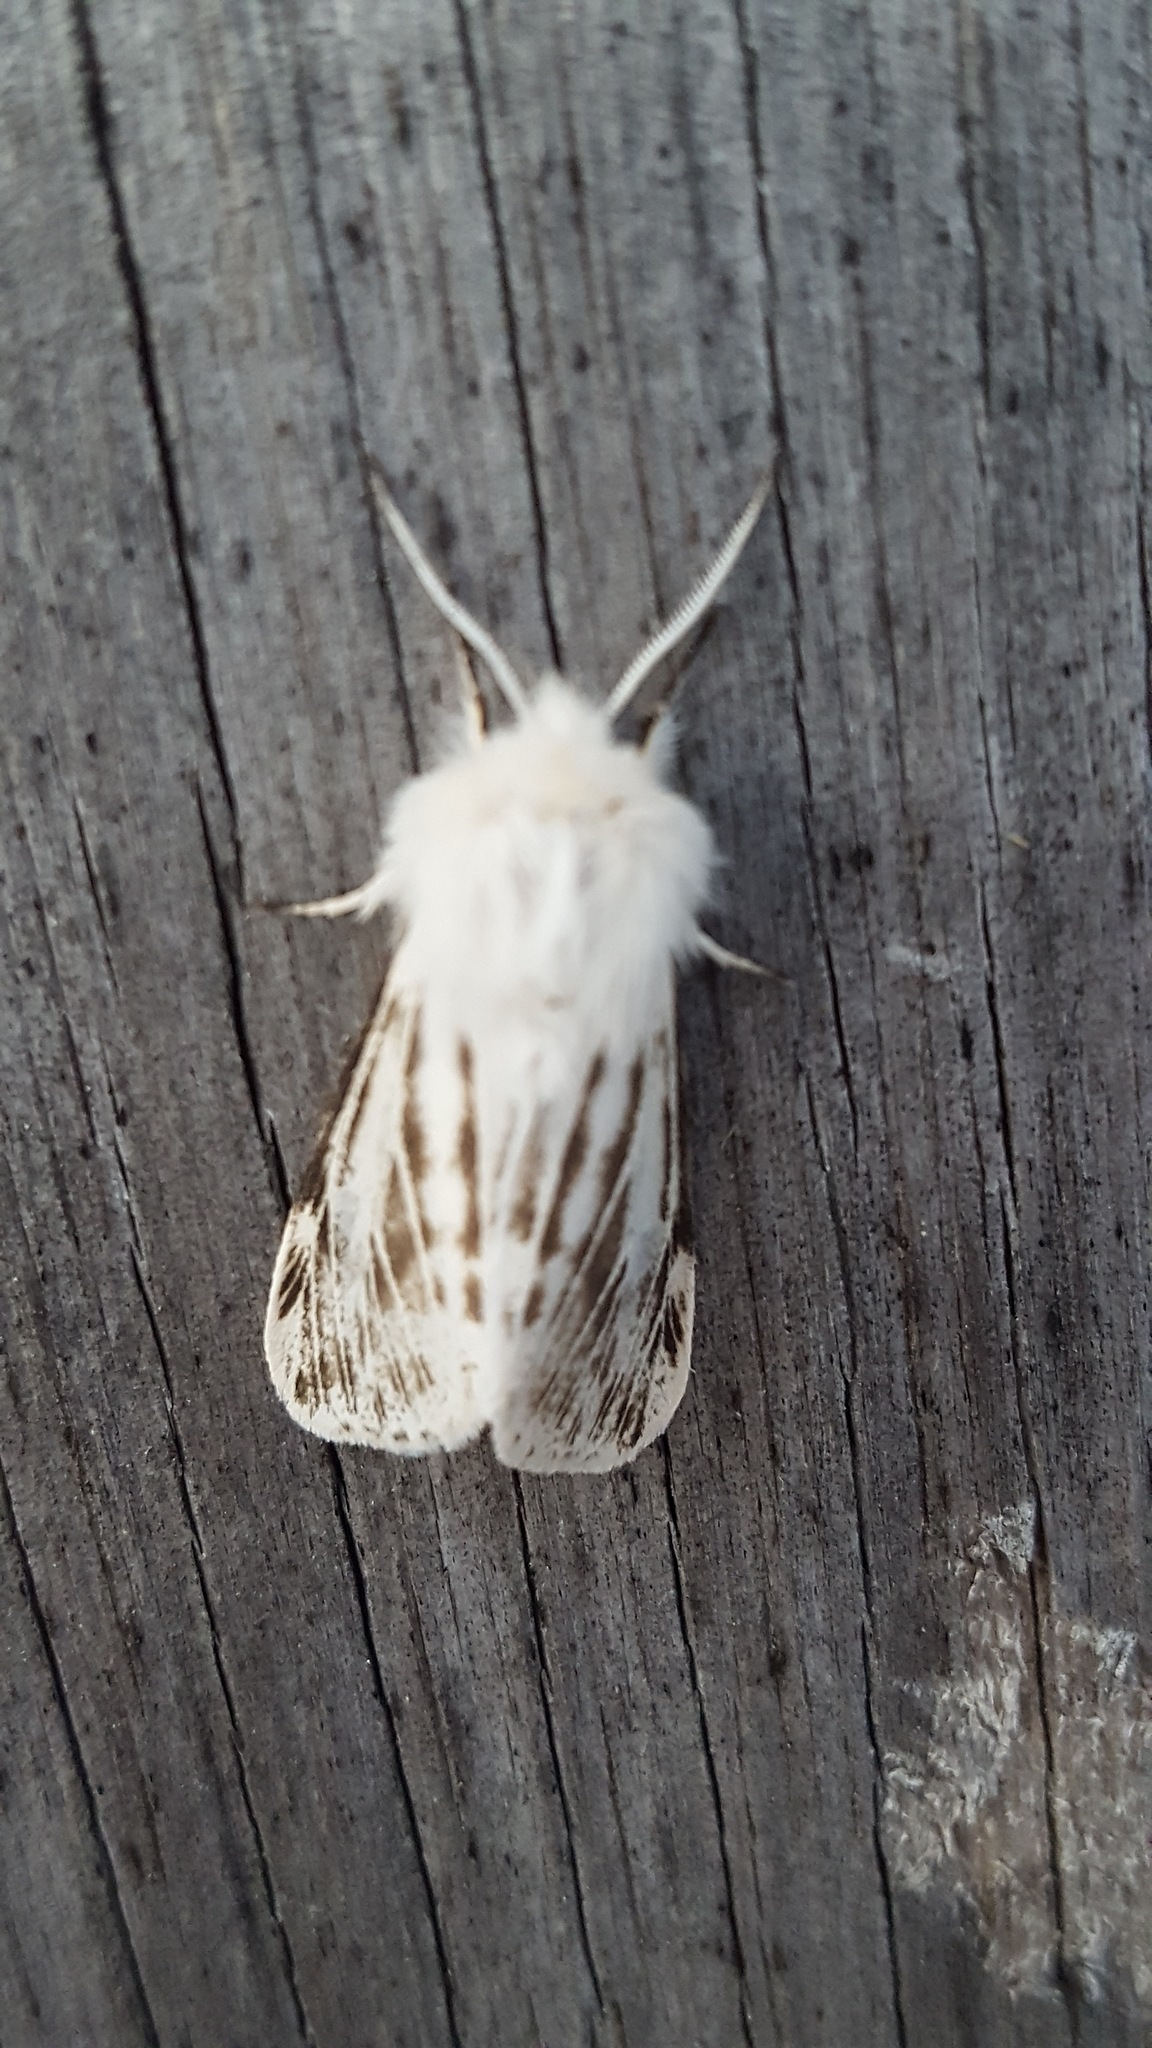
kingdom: Animalia
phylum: Arthropoda
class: Insecta
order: Lepidoptera
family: Erebidae
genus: Spilosoma
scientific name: Spilosoma dubia
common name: Dubious tiger moth
